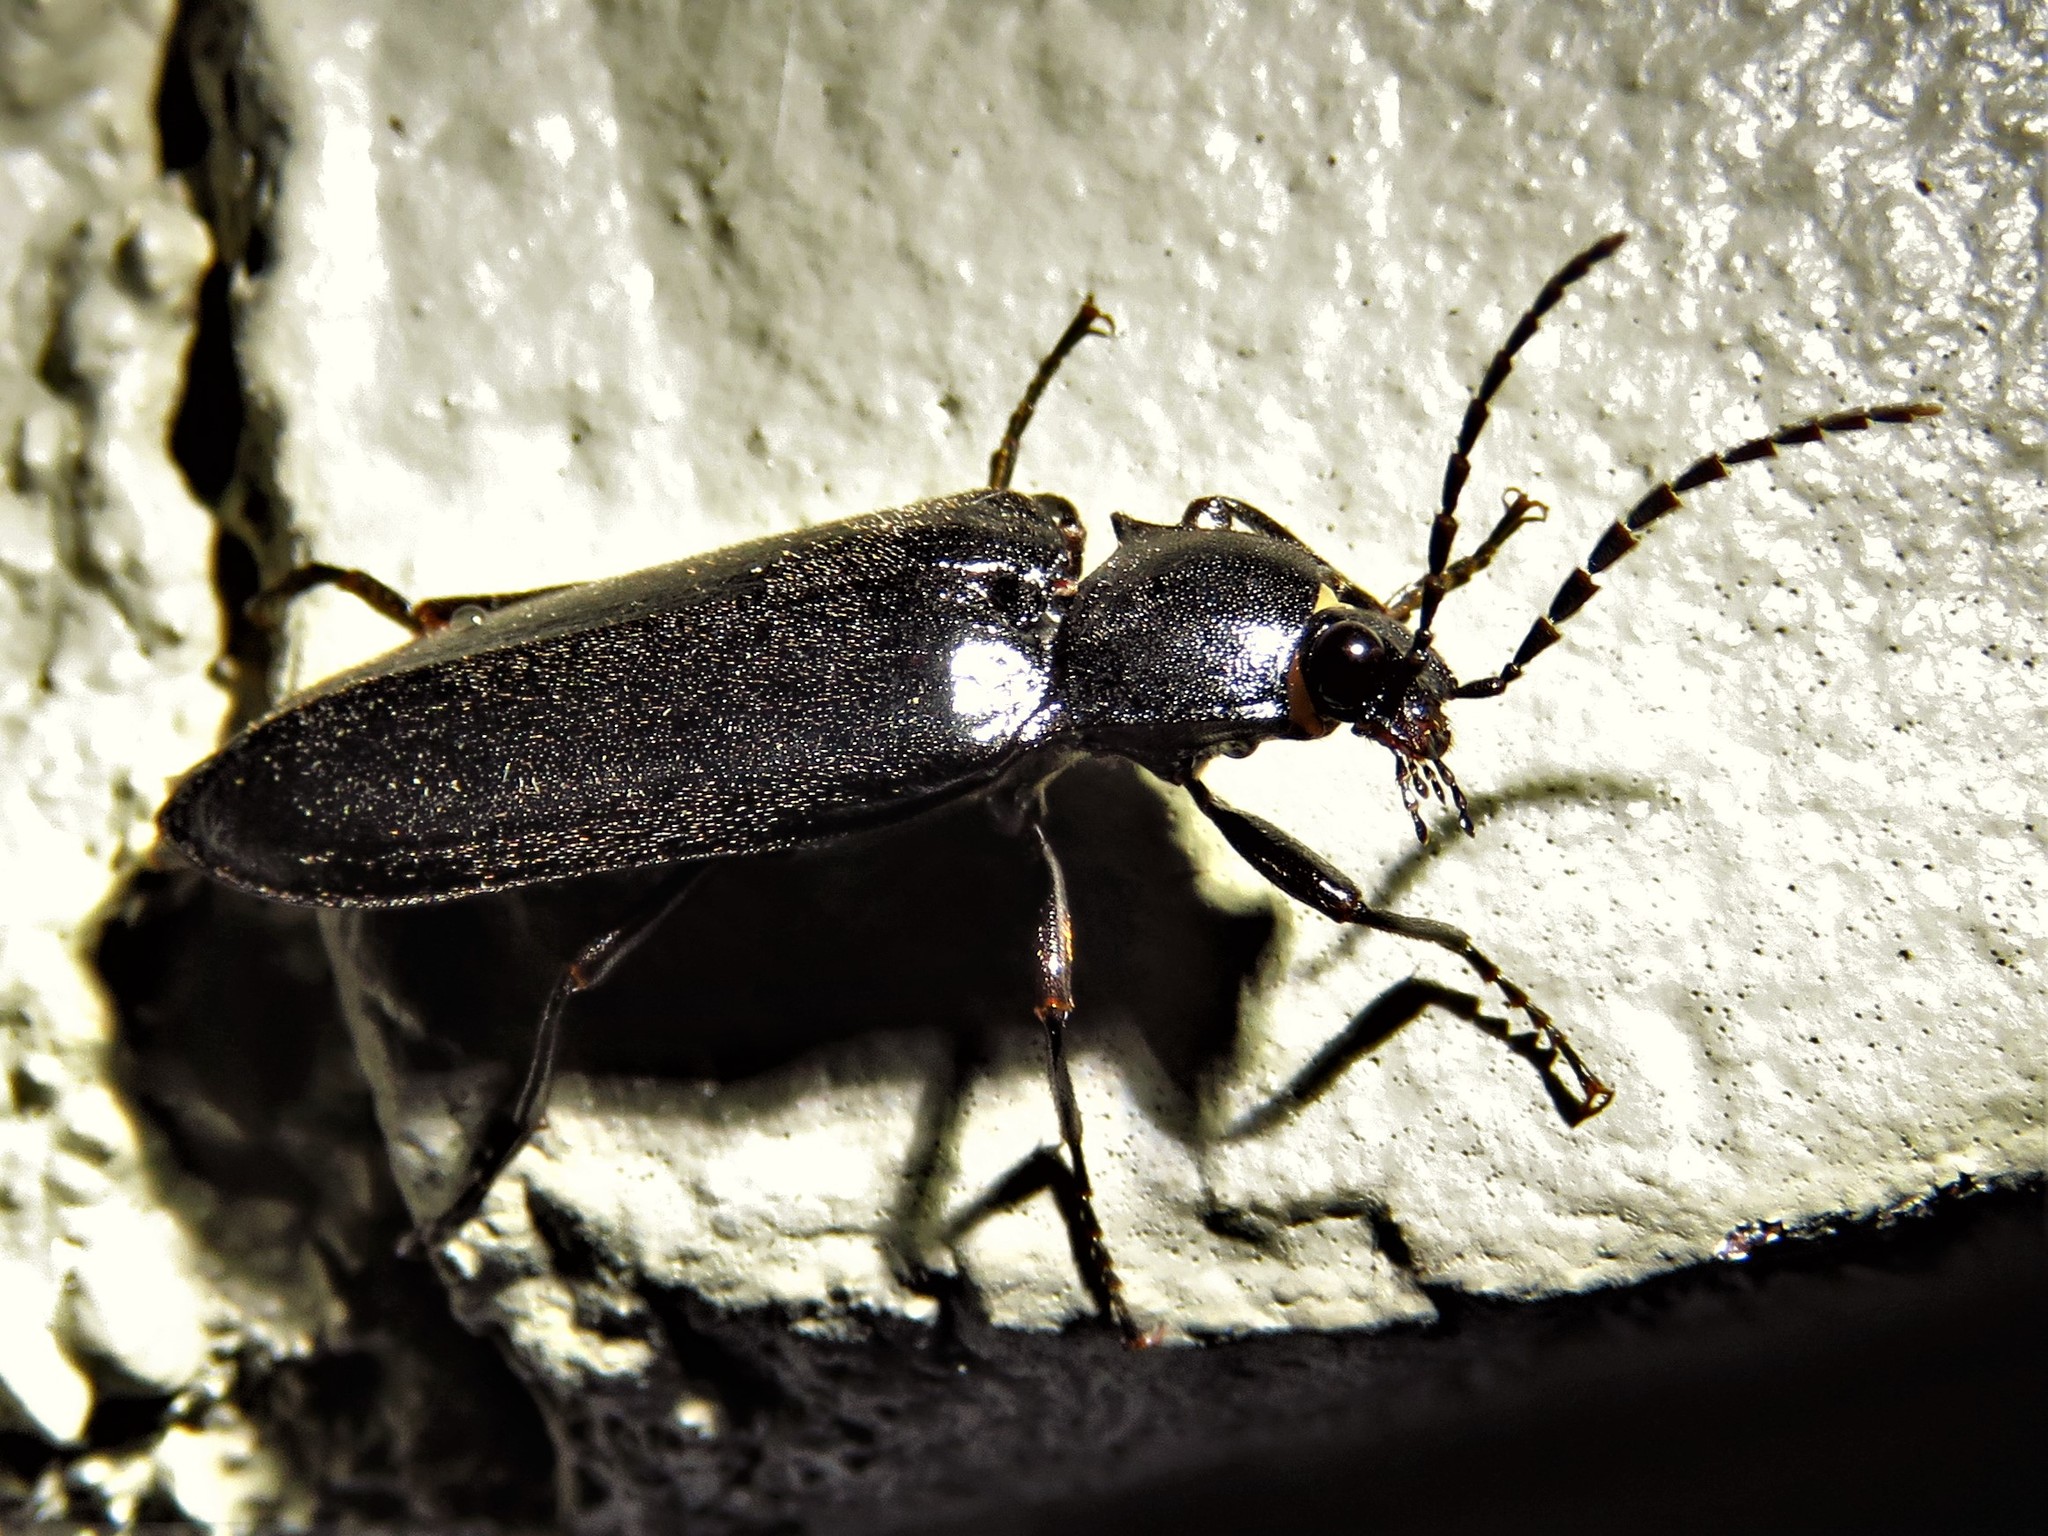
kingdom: Animalia
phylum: Arthropoda
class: Insecta
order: Coleoptera
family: Elateridae
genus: Perissarthron
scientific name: Perissarthron
